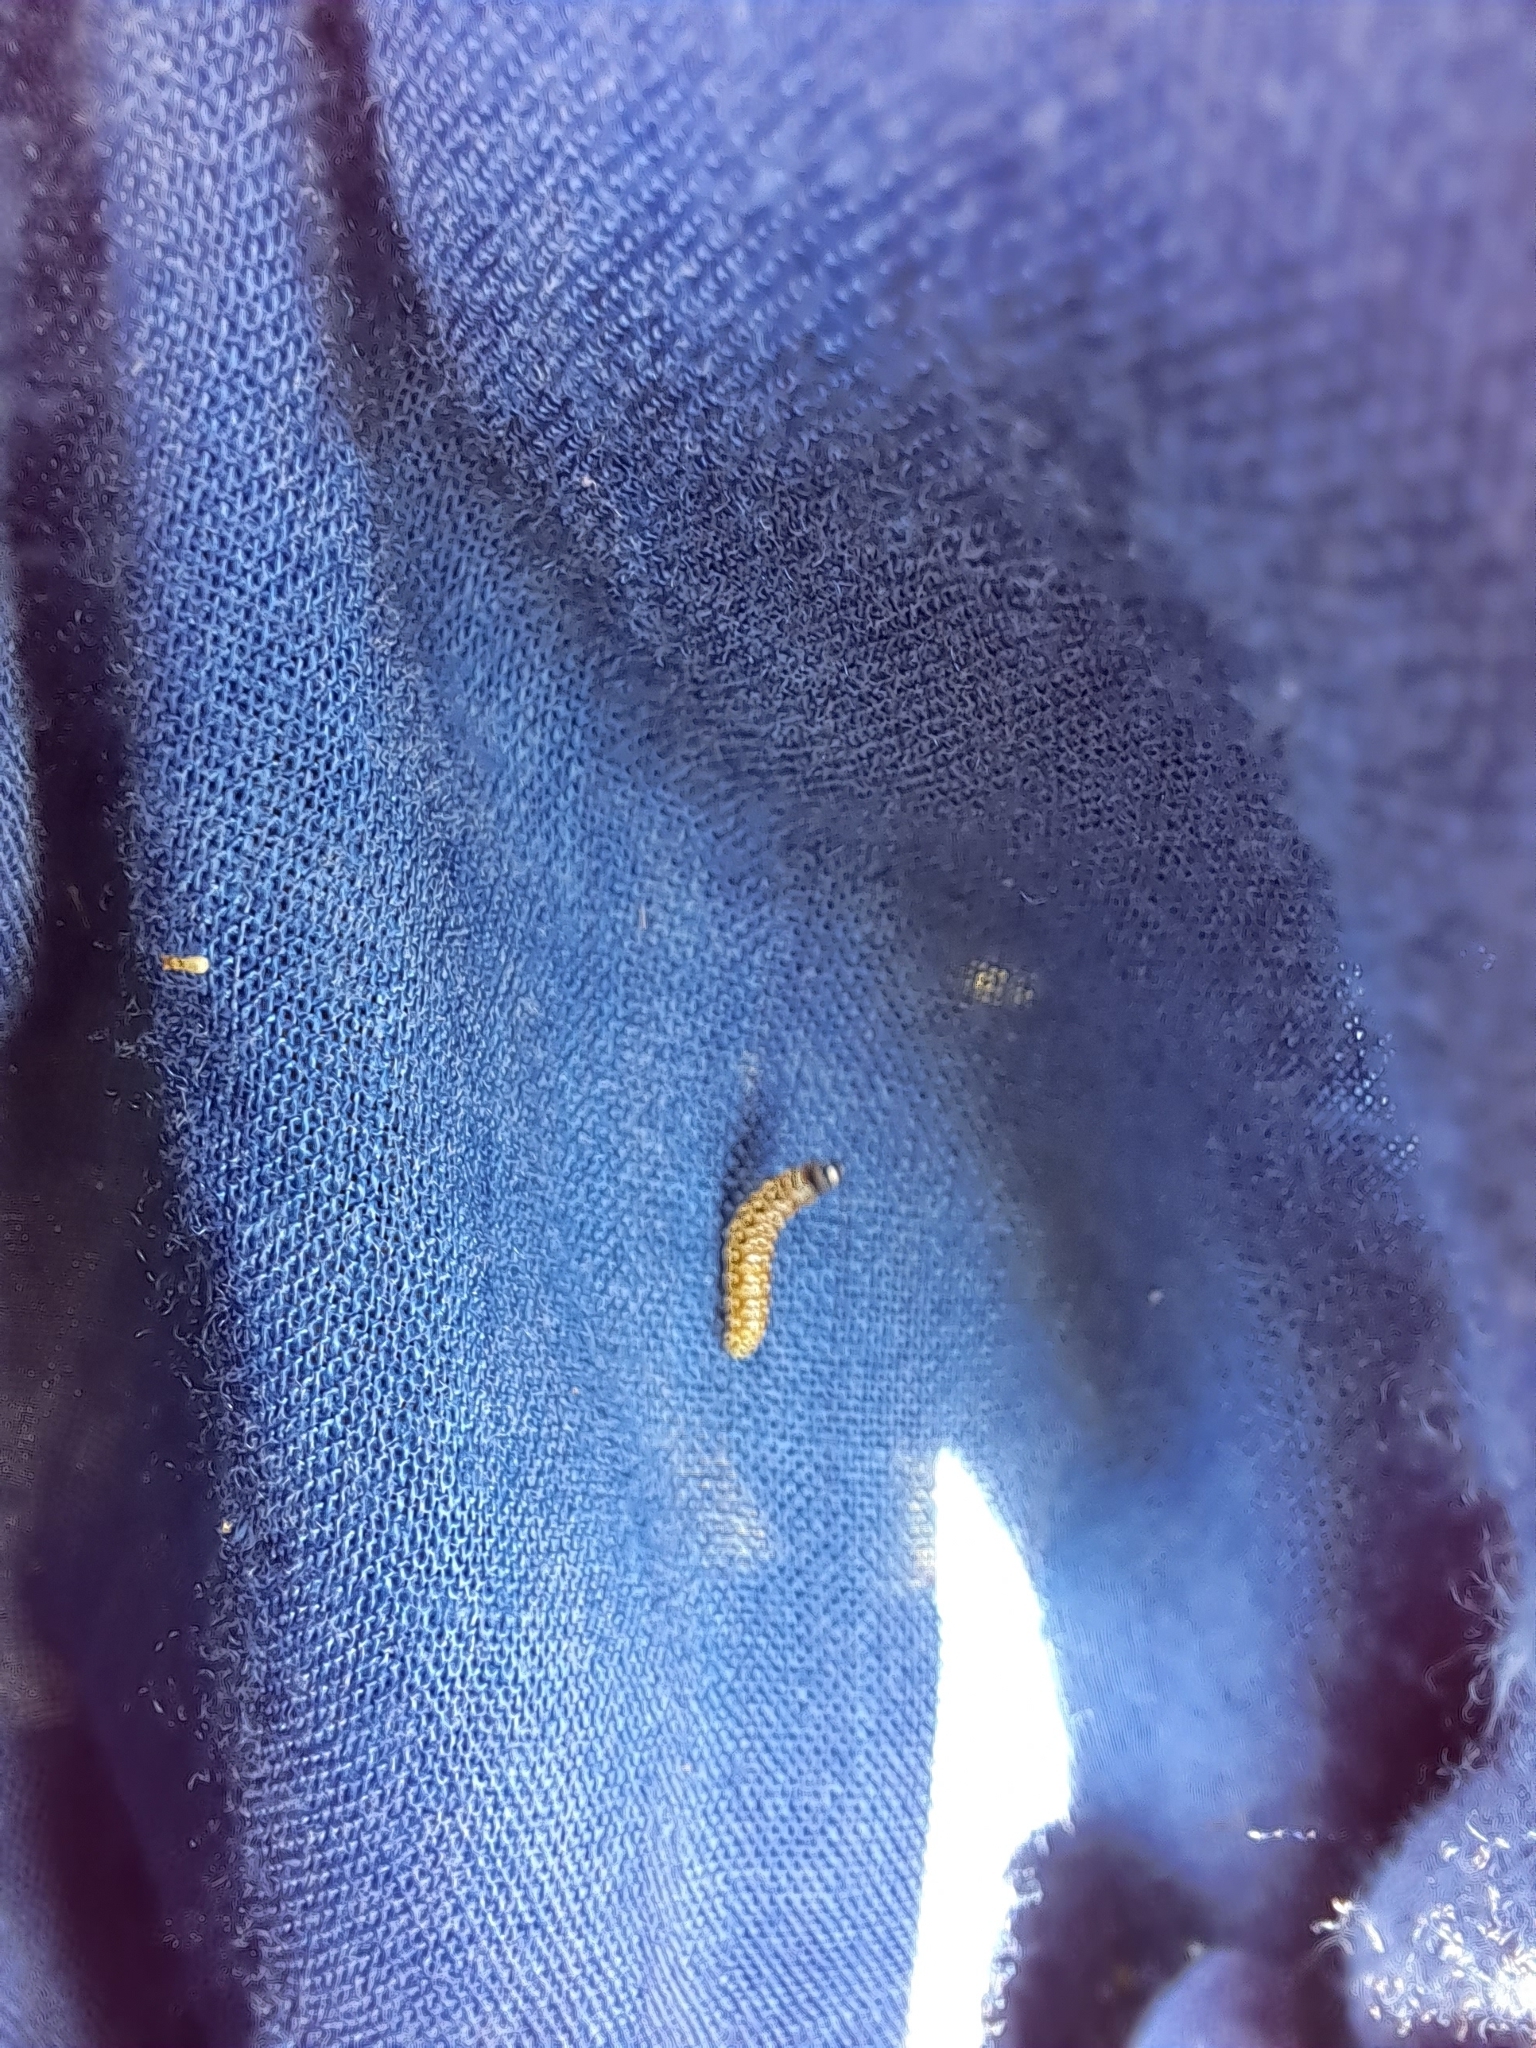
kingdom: Animalia
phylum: Arthropoda
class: Insecta
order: Lepidoptera
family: Depressariidae
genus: Depressaria
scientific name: Depressaria depressana
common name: Lost flat-body
